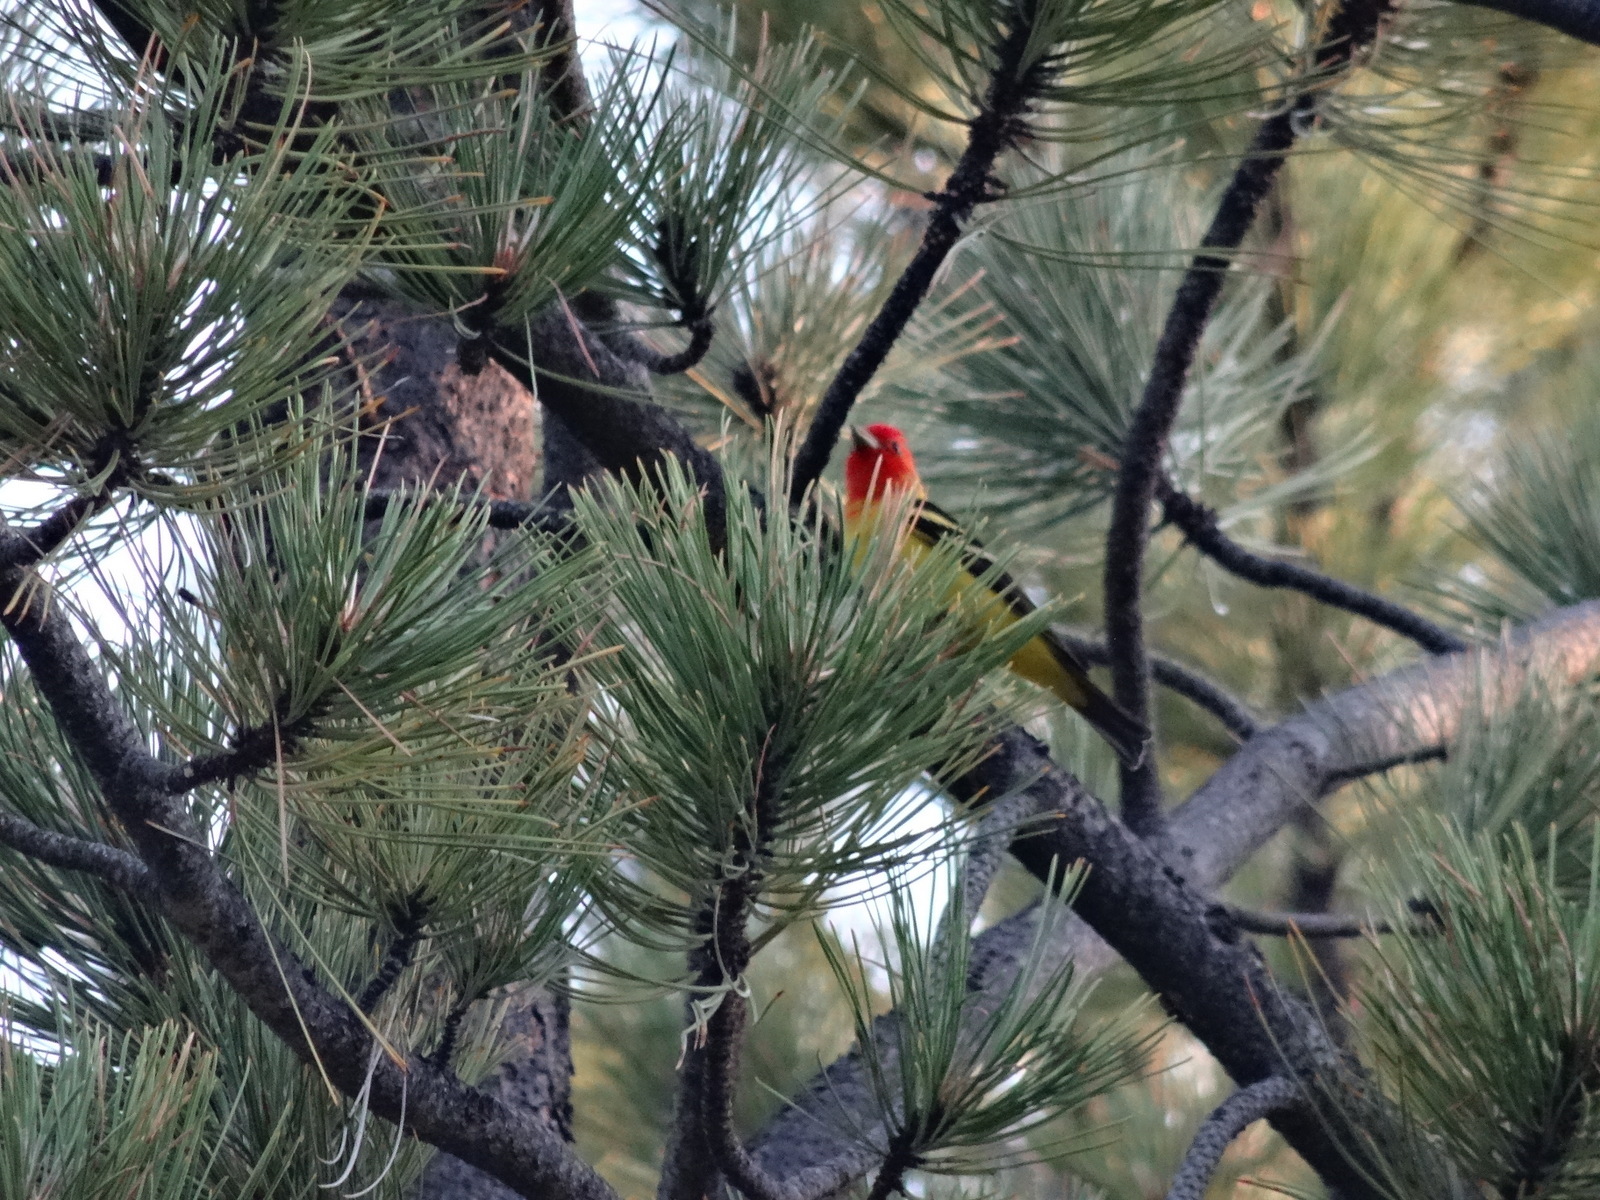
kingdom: Animalia
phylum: Chordata
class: Aves
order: Passeriformes
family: Cardinalidae
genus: Piranga
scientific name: Piranga ludoviciana
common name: Western tanager
